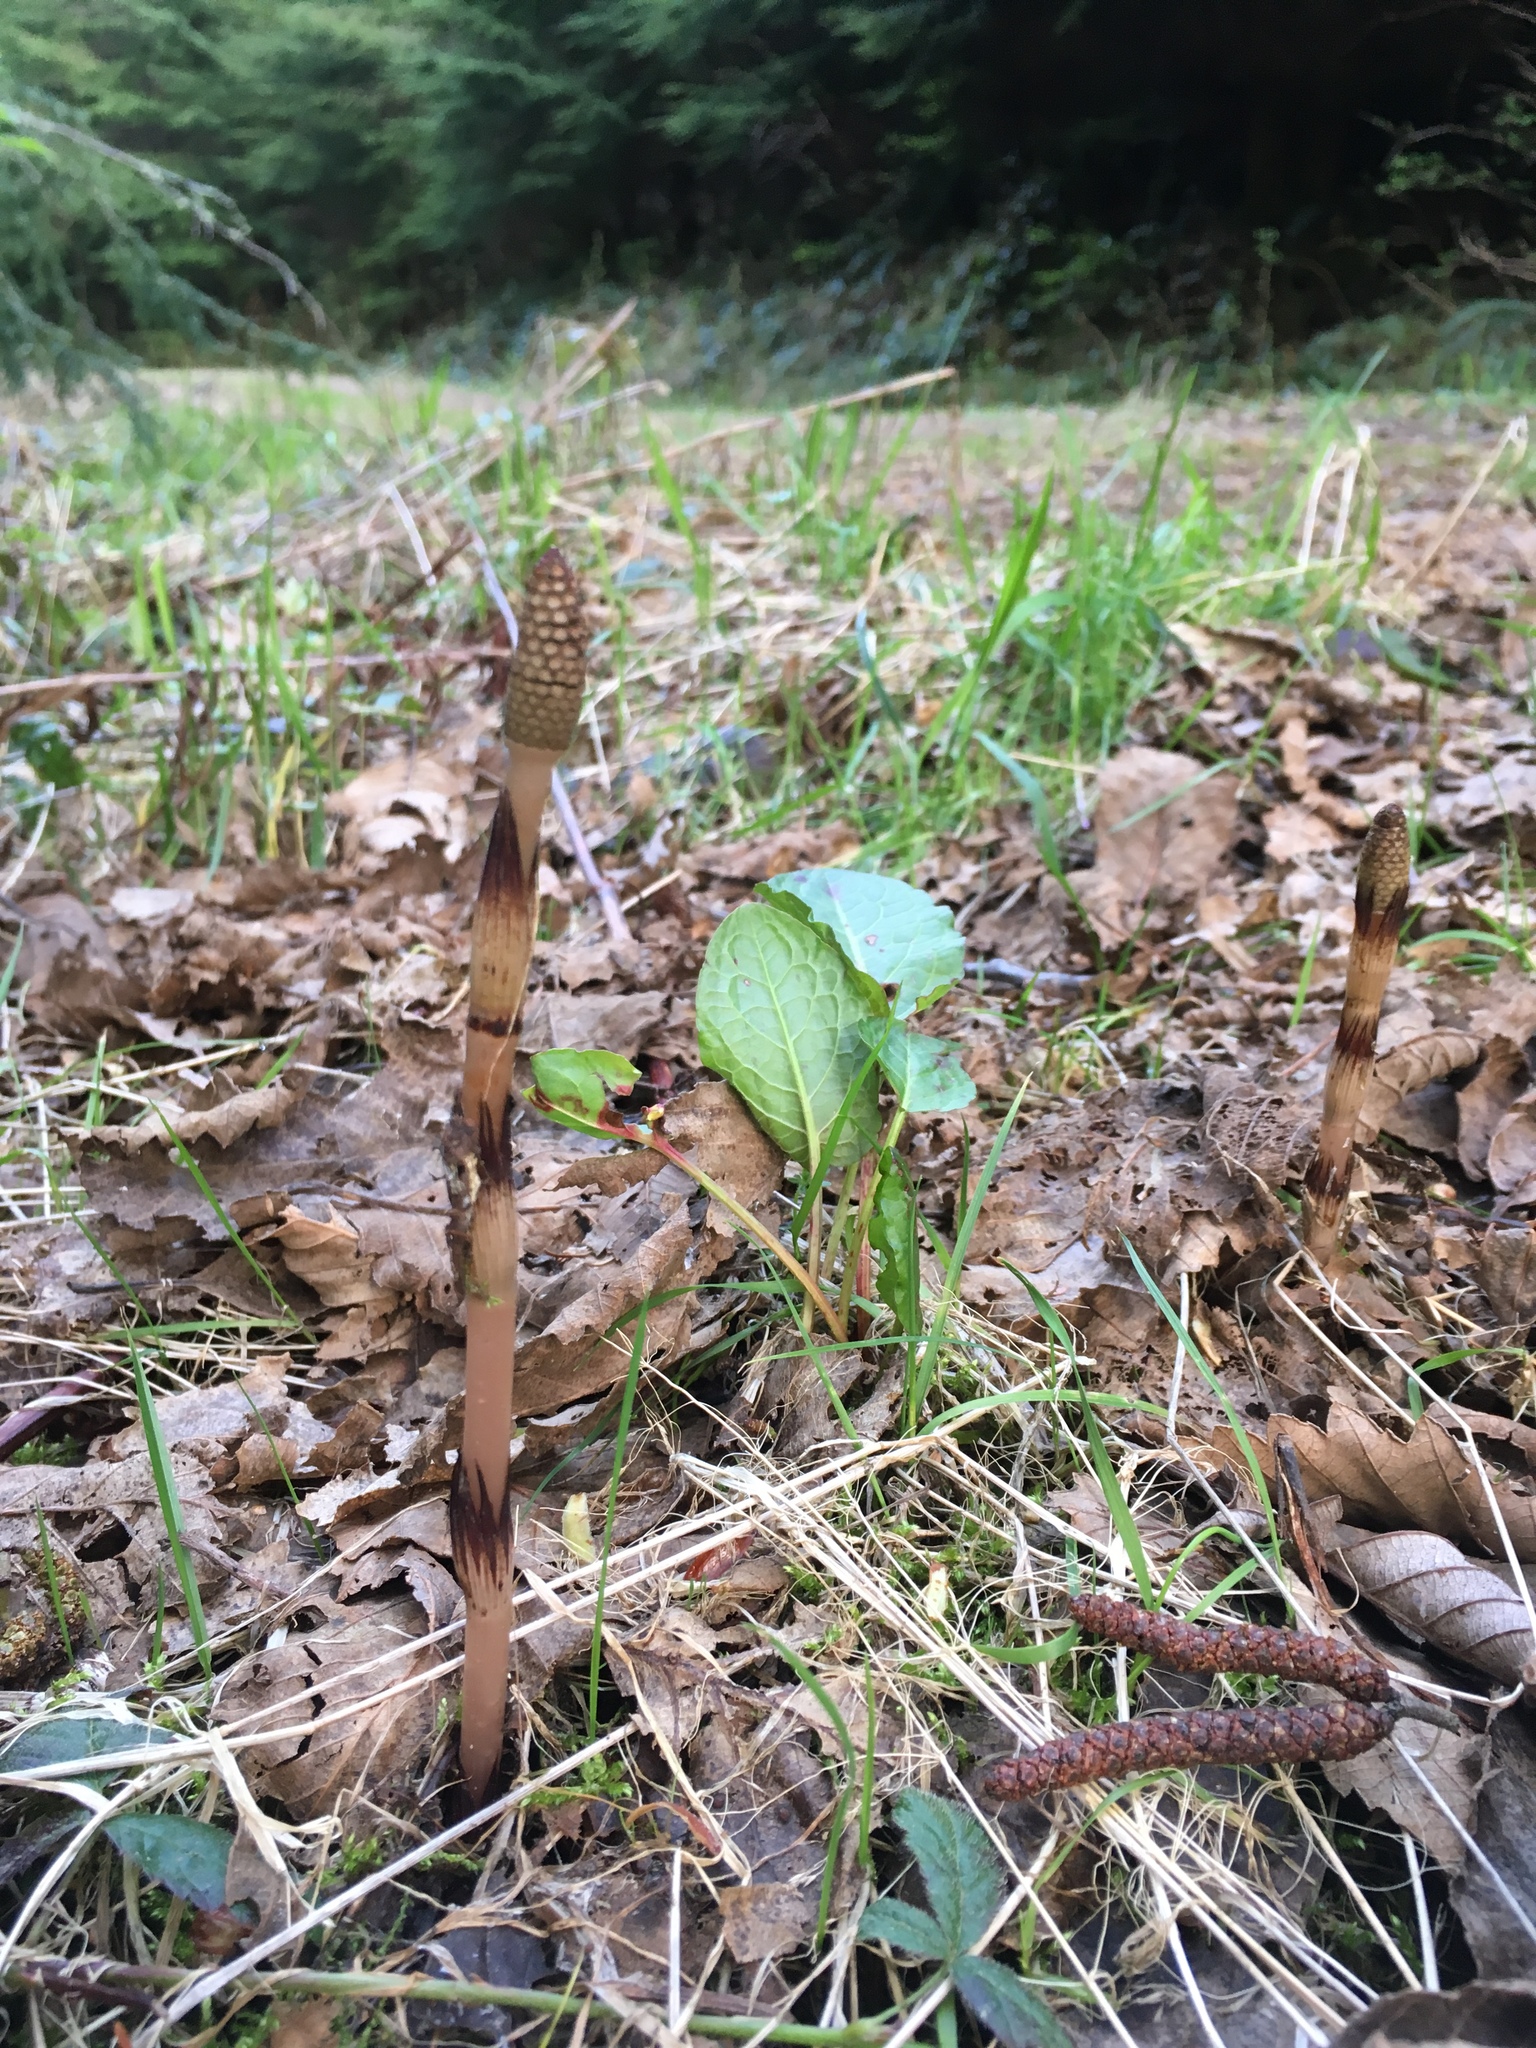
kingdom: Plantae
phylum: Tracheophyta
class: Polypodiopsida
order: Equisetales
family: Equisetaceae
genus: Equisetum
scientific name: Equisetum arvense
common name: Field horsetail
